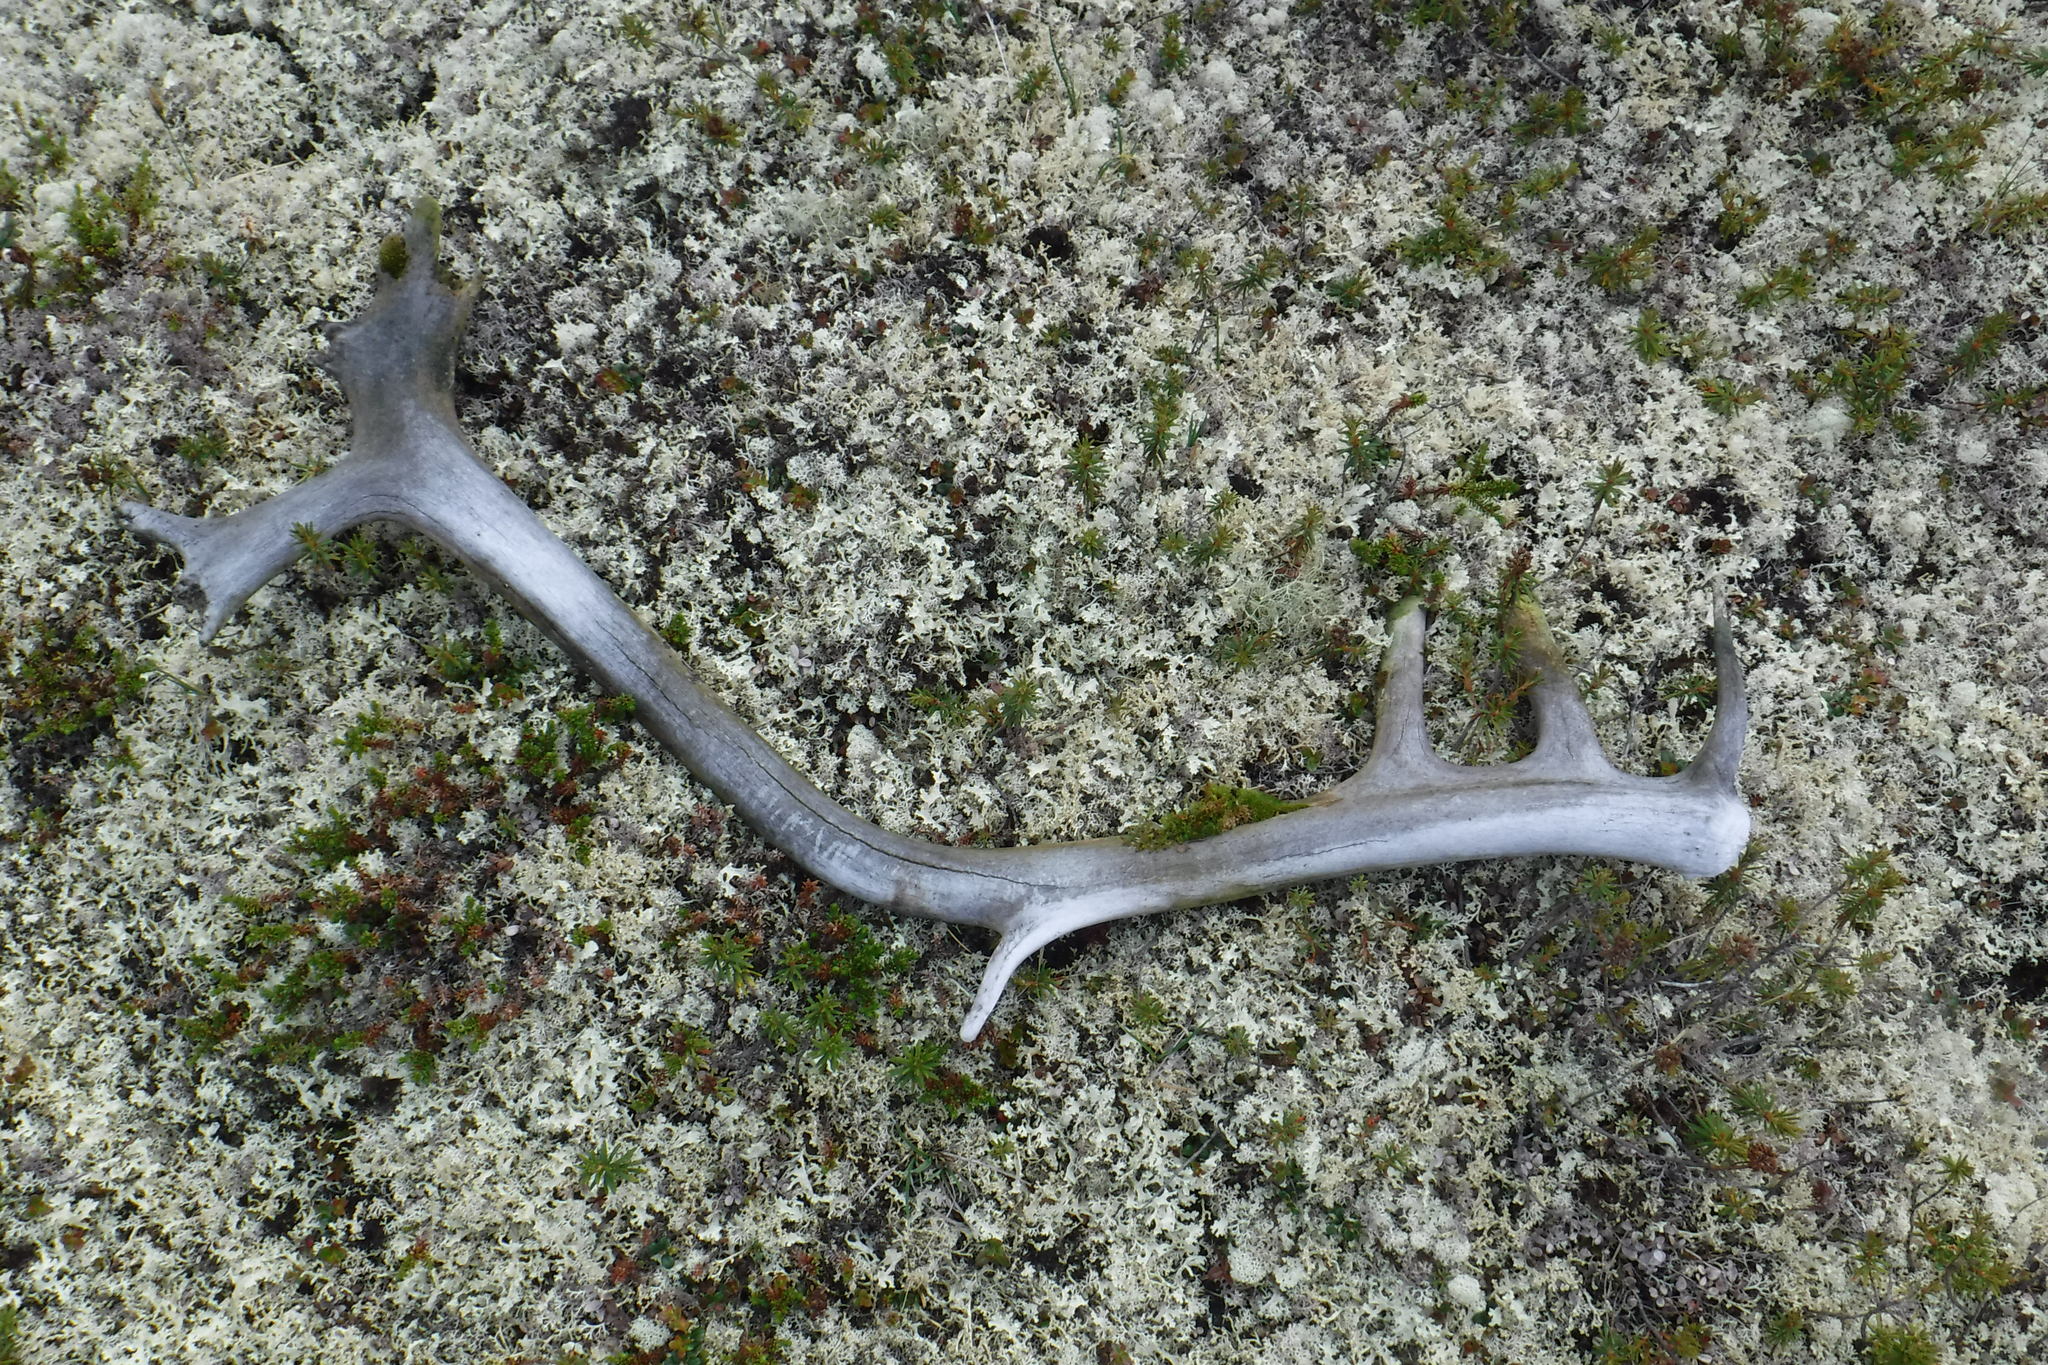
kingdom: Animalia
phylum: Chordata
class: Mammalia
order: Artiodactyla
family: Cervidae
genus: Rangifer
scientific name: Rangifer tarandus
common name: Reindeer
